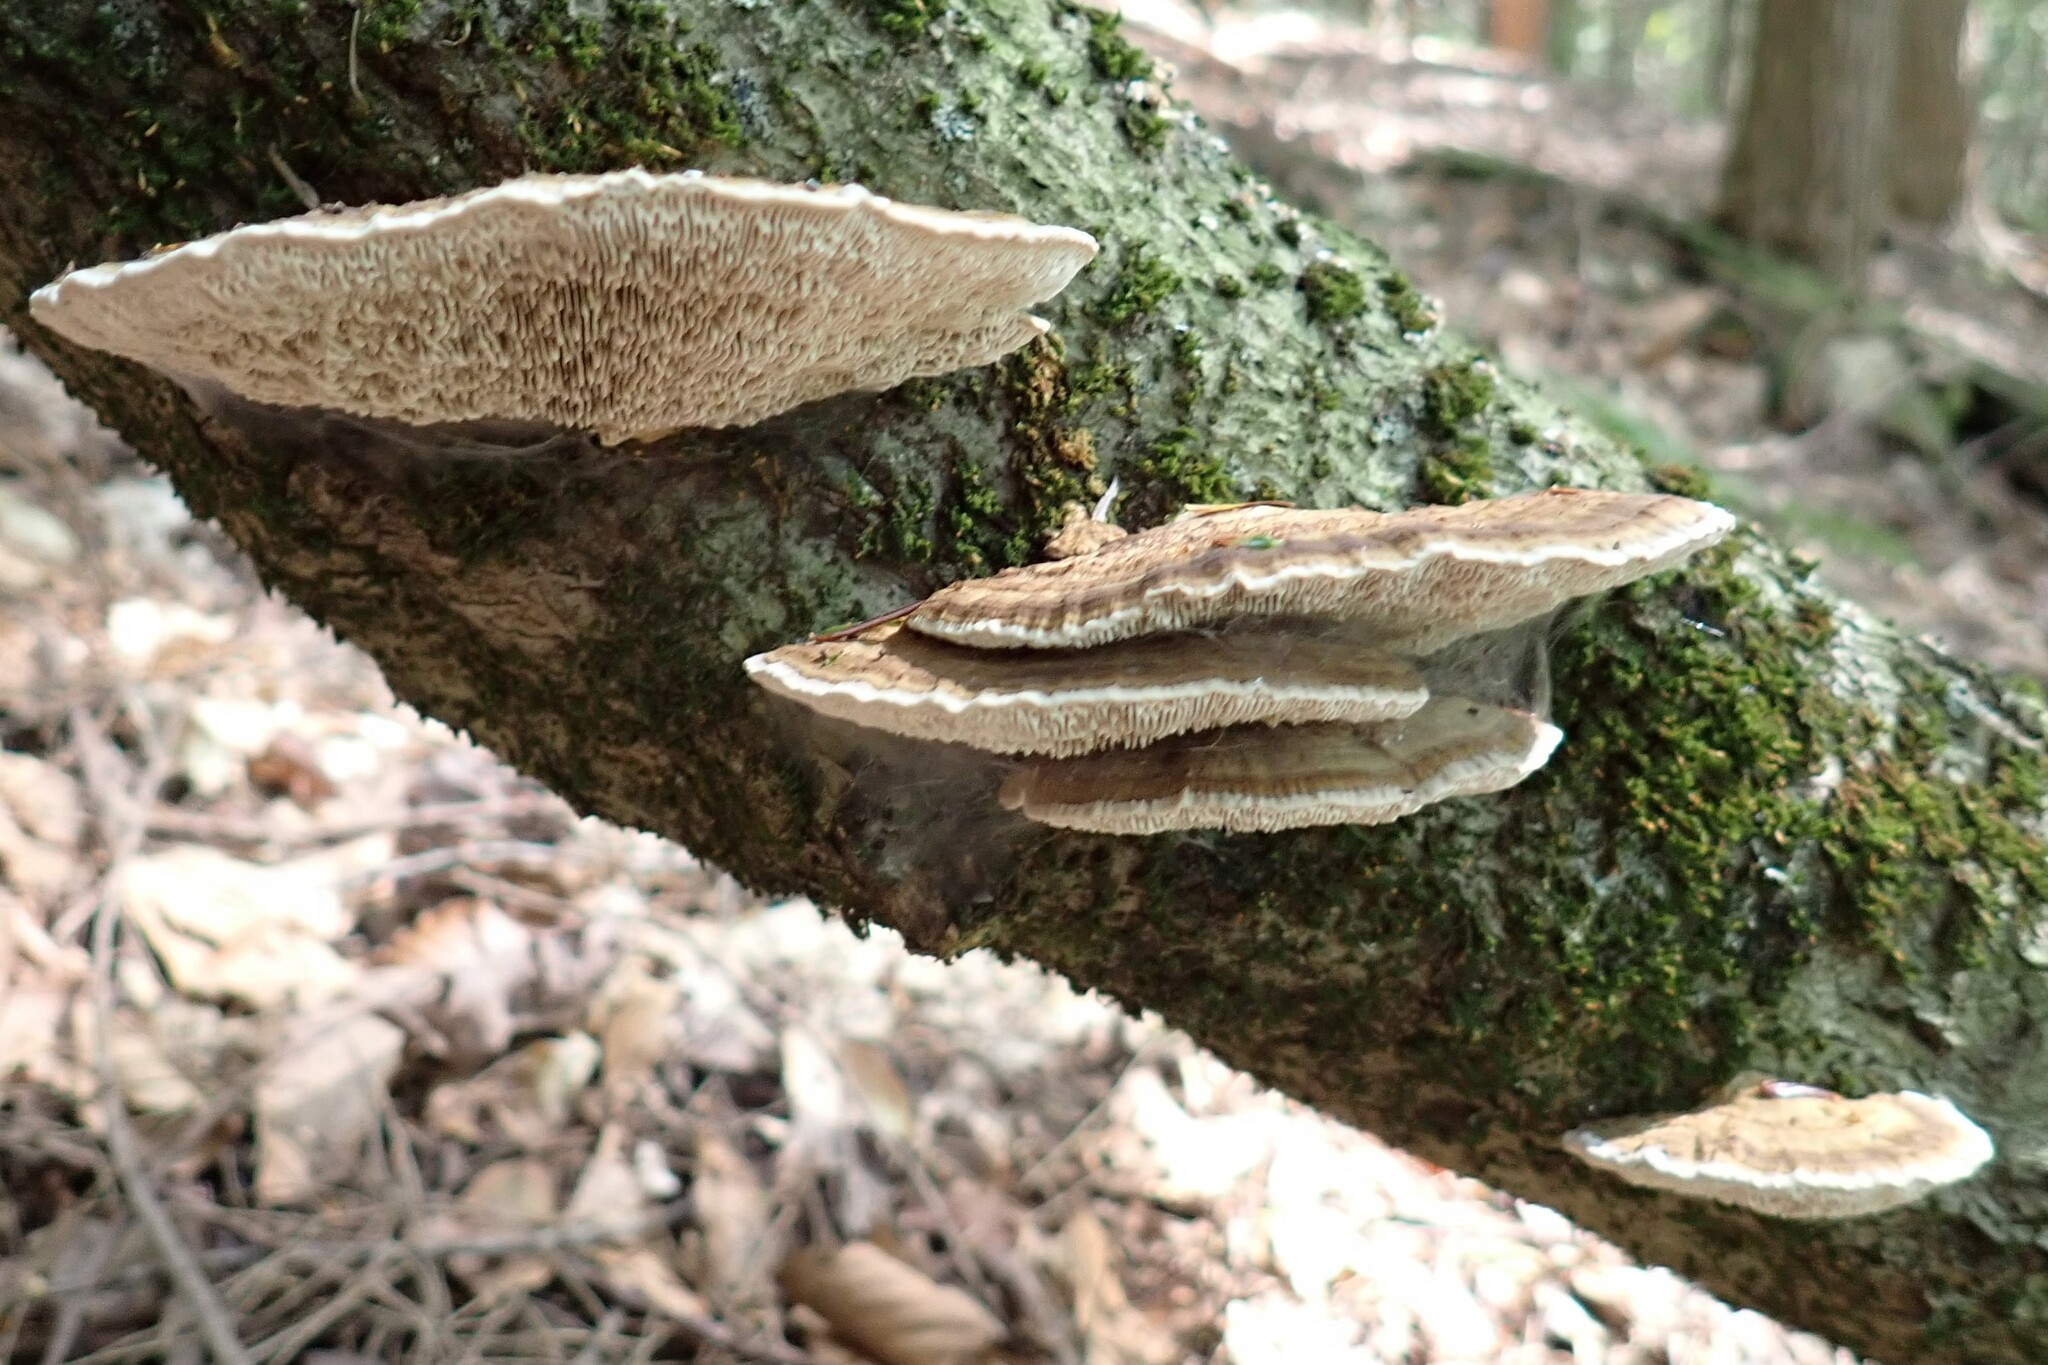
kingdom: Fungi
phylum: Basidiomycota
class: Agaricomycetes
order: Polyporales
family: Polyporaceae
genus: Daedaleopsis
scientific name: Daedaleopsis confragosa
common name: Blushing bracket
